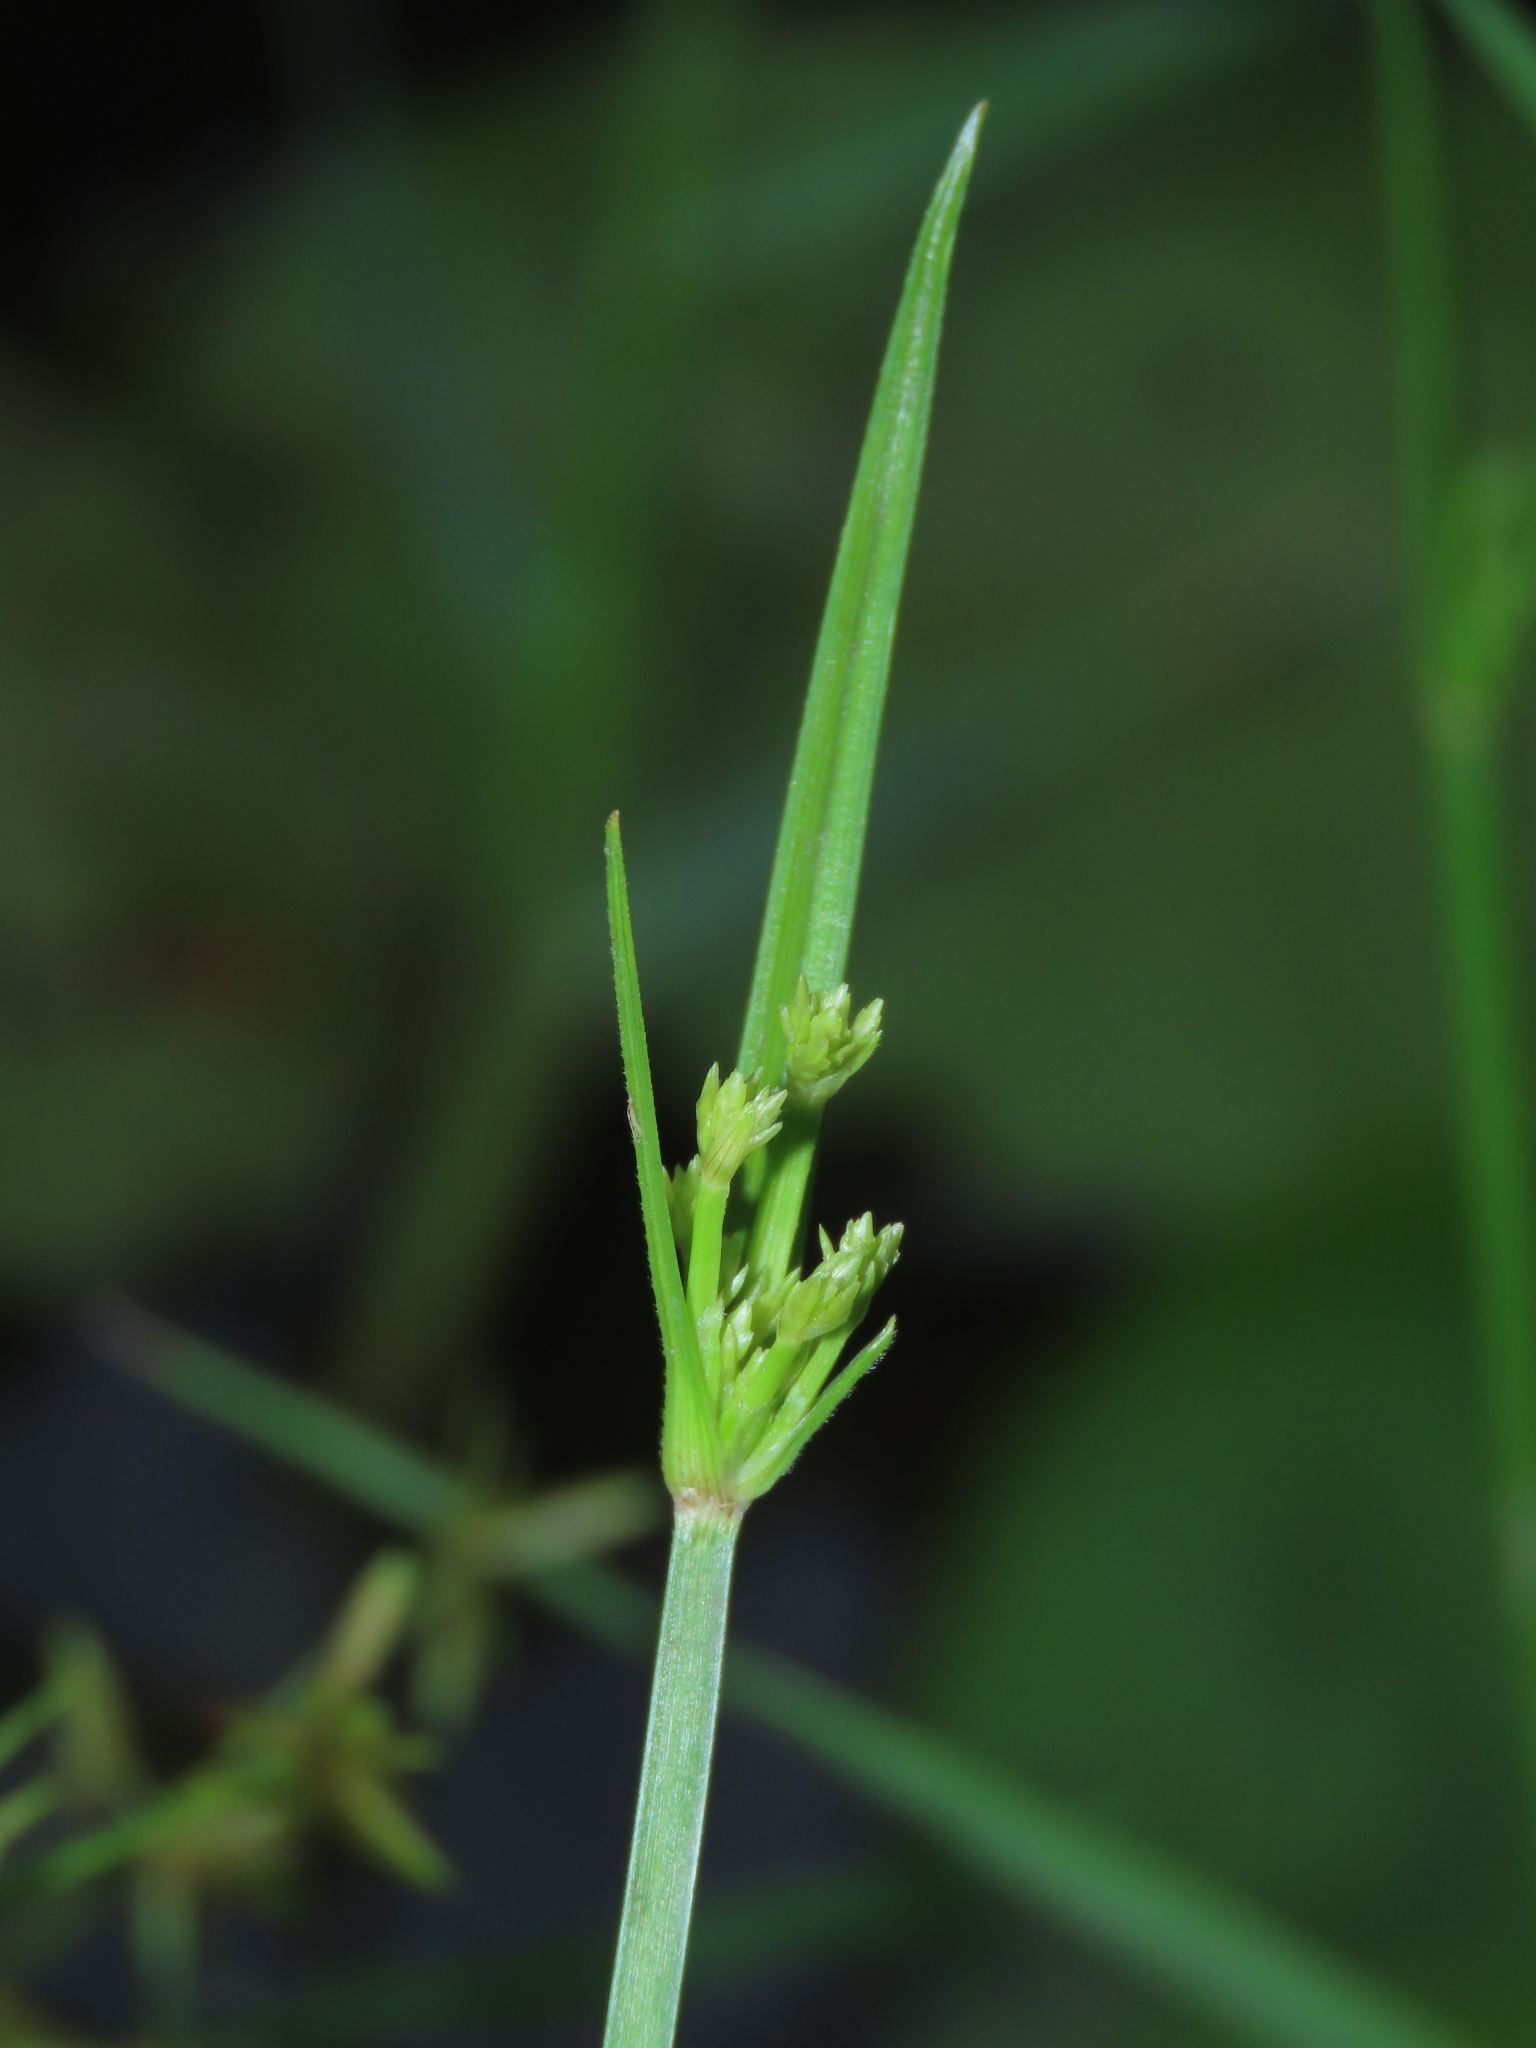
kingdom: Plantae
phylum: Tracheophyta
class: Liliopsida
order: Poales
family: Cyperaceae
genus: Cyperus
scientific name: Cyperus haspan
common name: Haspan flatsedge
